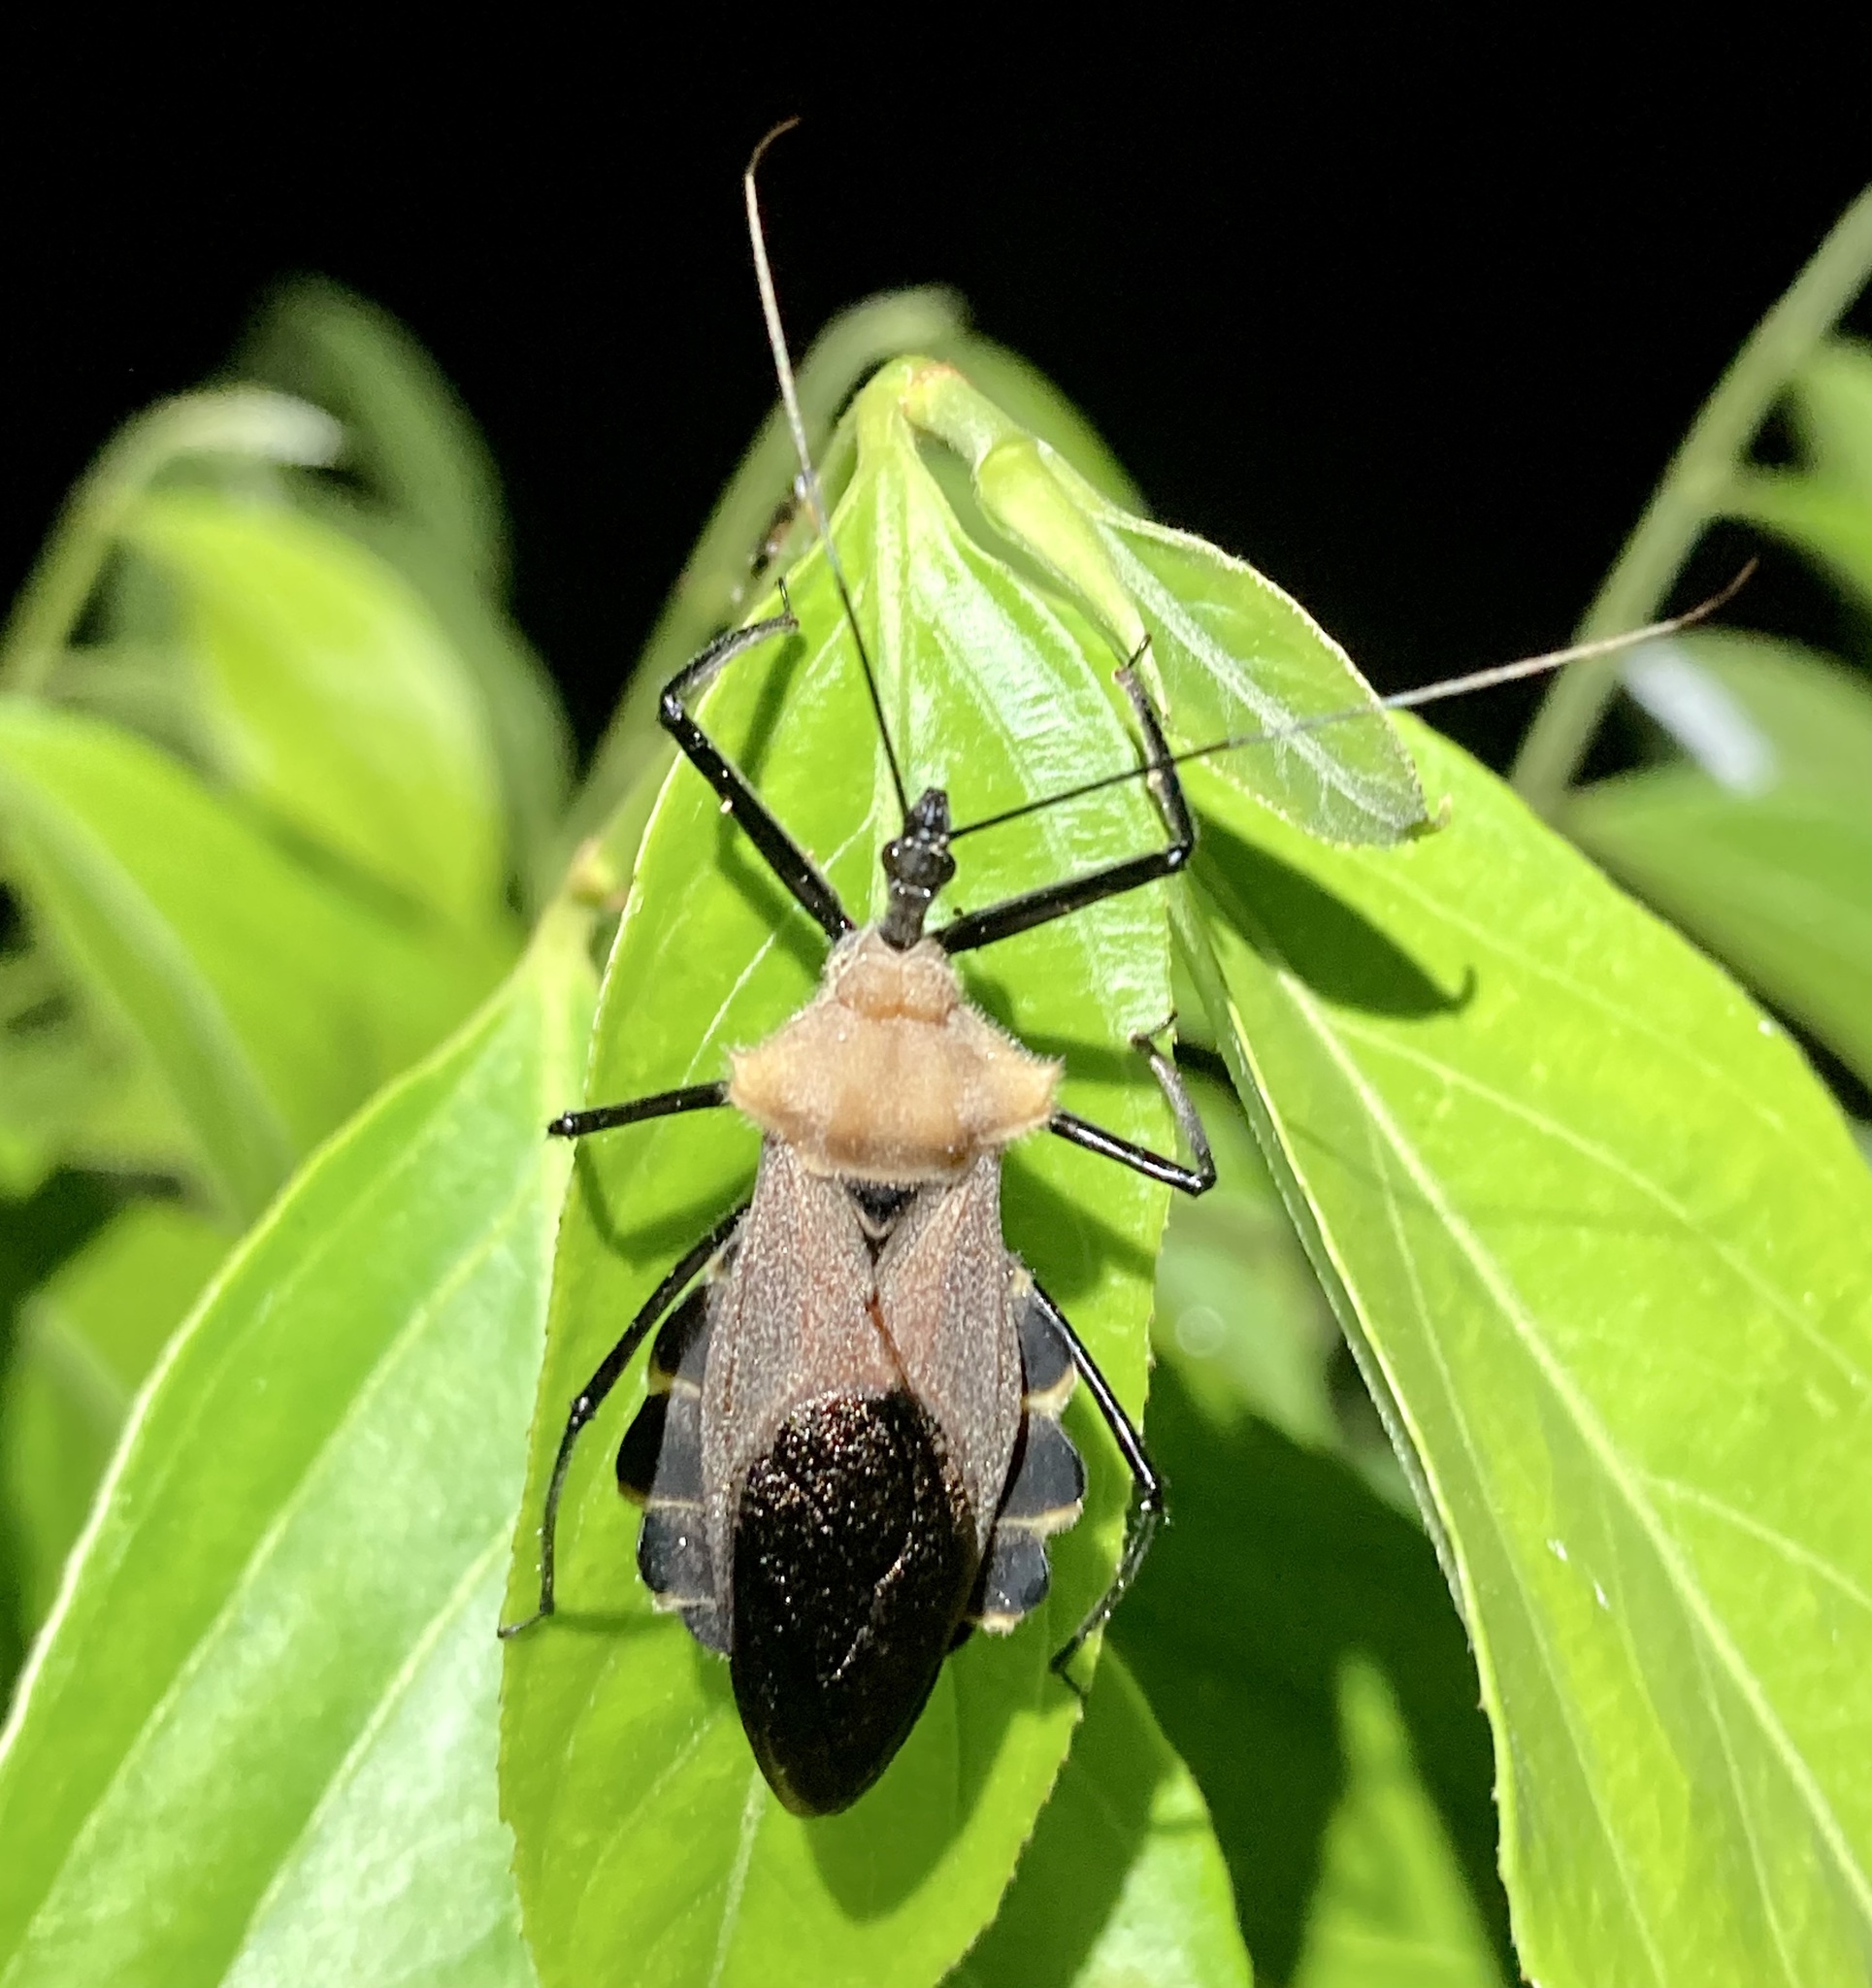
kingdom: Animalia
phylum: Arthropoda
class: Insecta
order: Hemiptera
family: Reduviidae
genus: Montina
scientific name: Montina lobata
